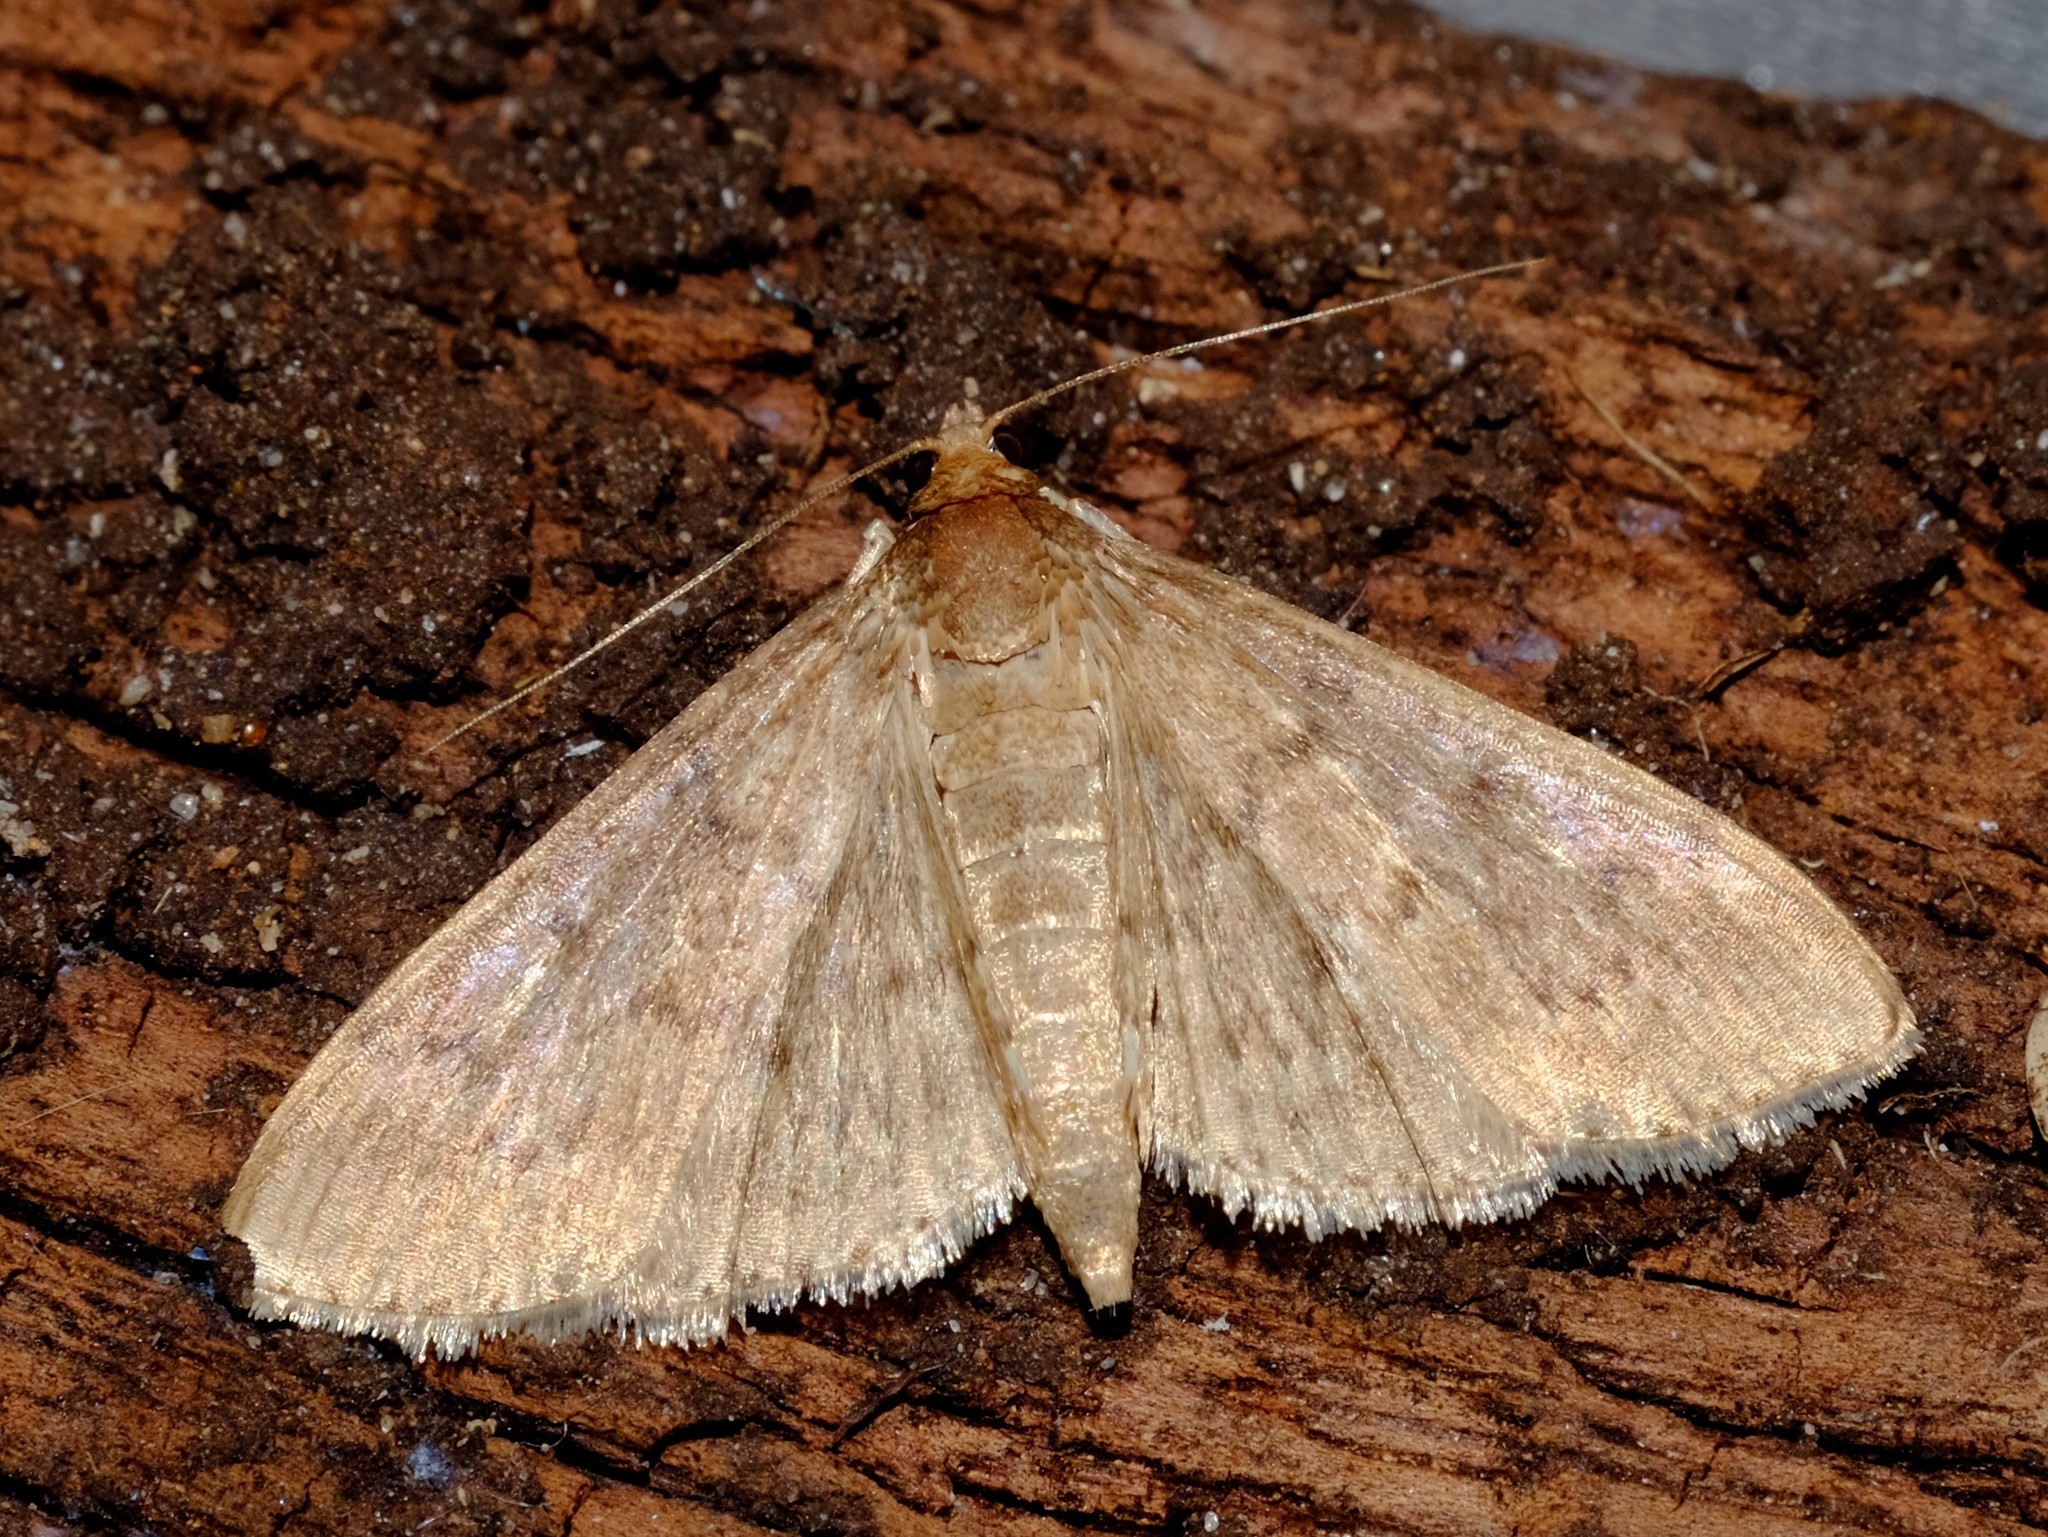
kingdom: Animalia
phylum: Arthropoda
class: Insecta
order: Lepidoptera
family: Crambidae
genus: Herpetogramma
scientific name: Herpetogramma licarsisalis
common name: Grass webworm
